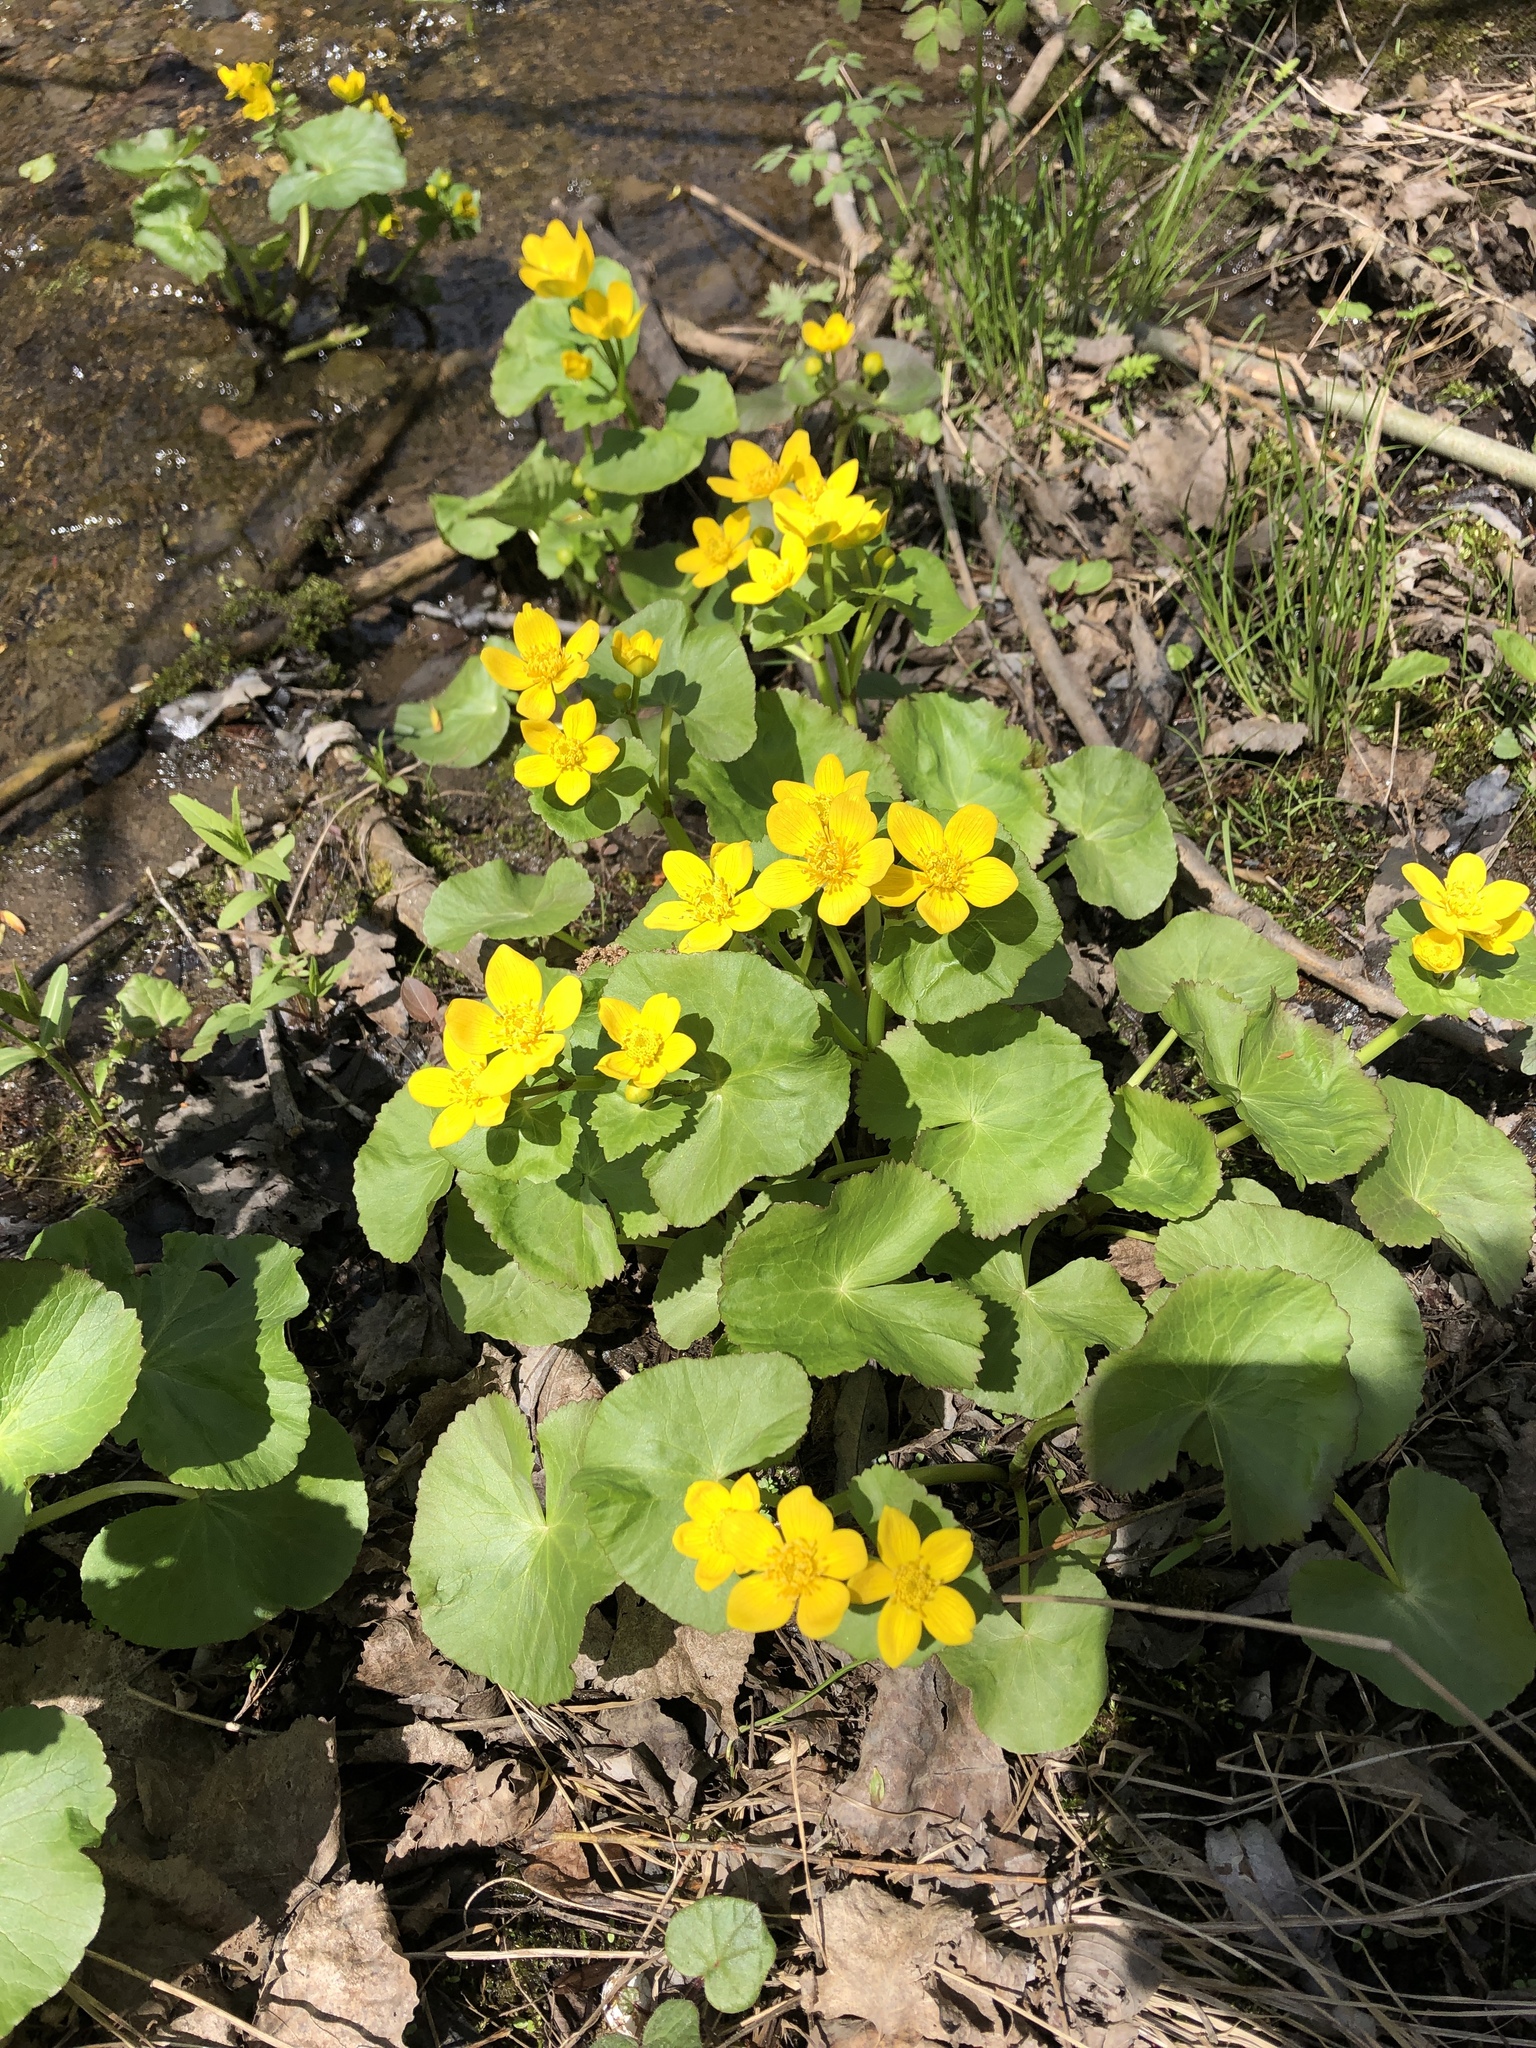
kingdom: Plantae
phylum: Tracheophyta
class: Magnoliopsida
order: Ranunculales
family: Ranunculaceae
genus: Caltha
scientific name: Caltha palustris
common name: Marsh marigold
